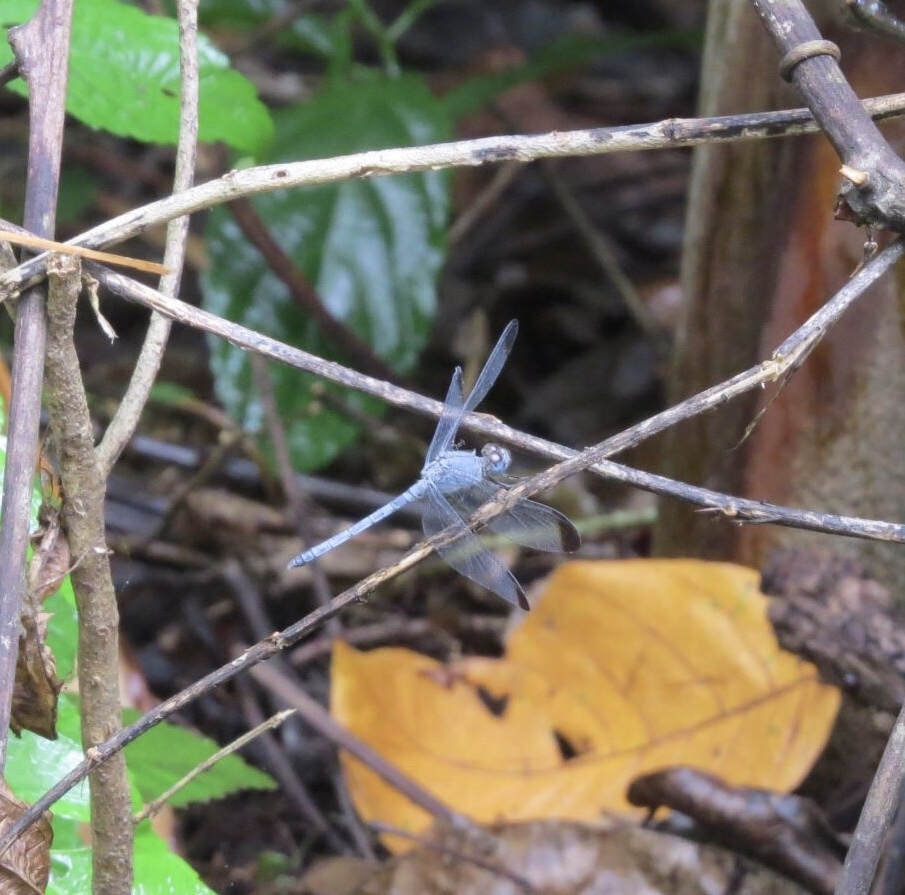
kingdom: Animalia
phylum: Arthropoda
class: Insecta
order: Odonata
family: Libellulidae
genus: Uracis
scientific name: Uracis imbuta
